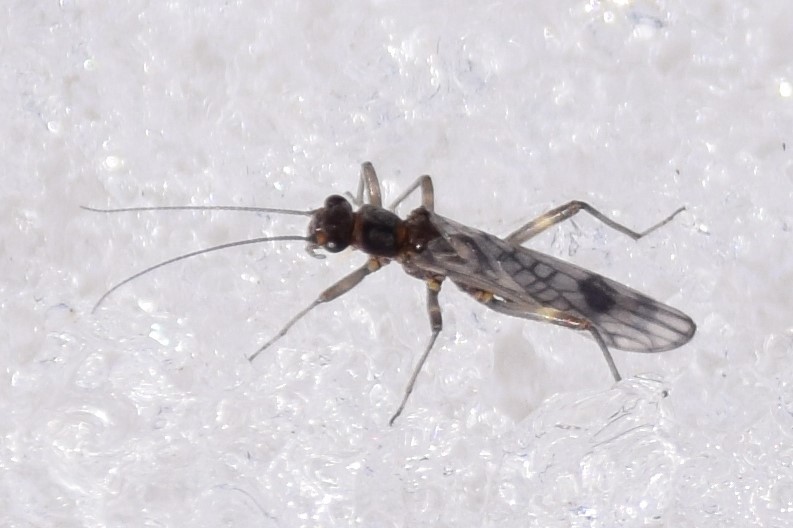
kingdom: Animalia
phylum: Arthropoda
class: Insecta
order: Plecoptera
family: Nemouridae
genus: Zapada
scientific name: Zapada columbiana
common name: Columbian forestfly
